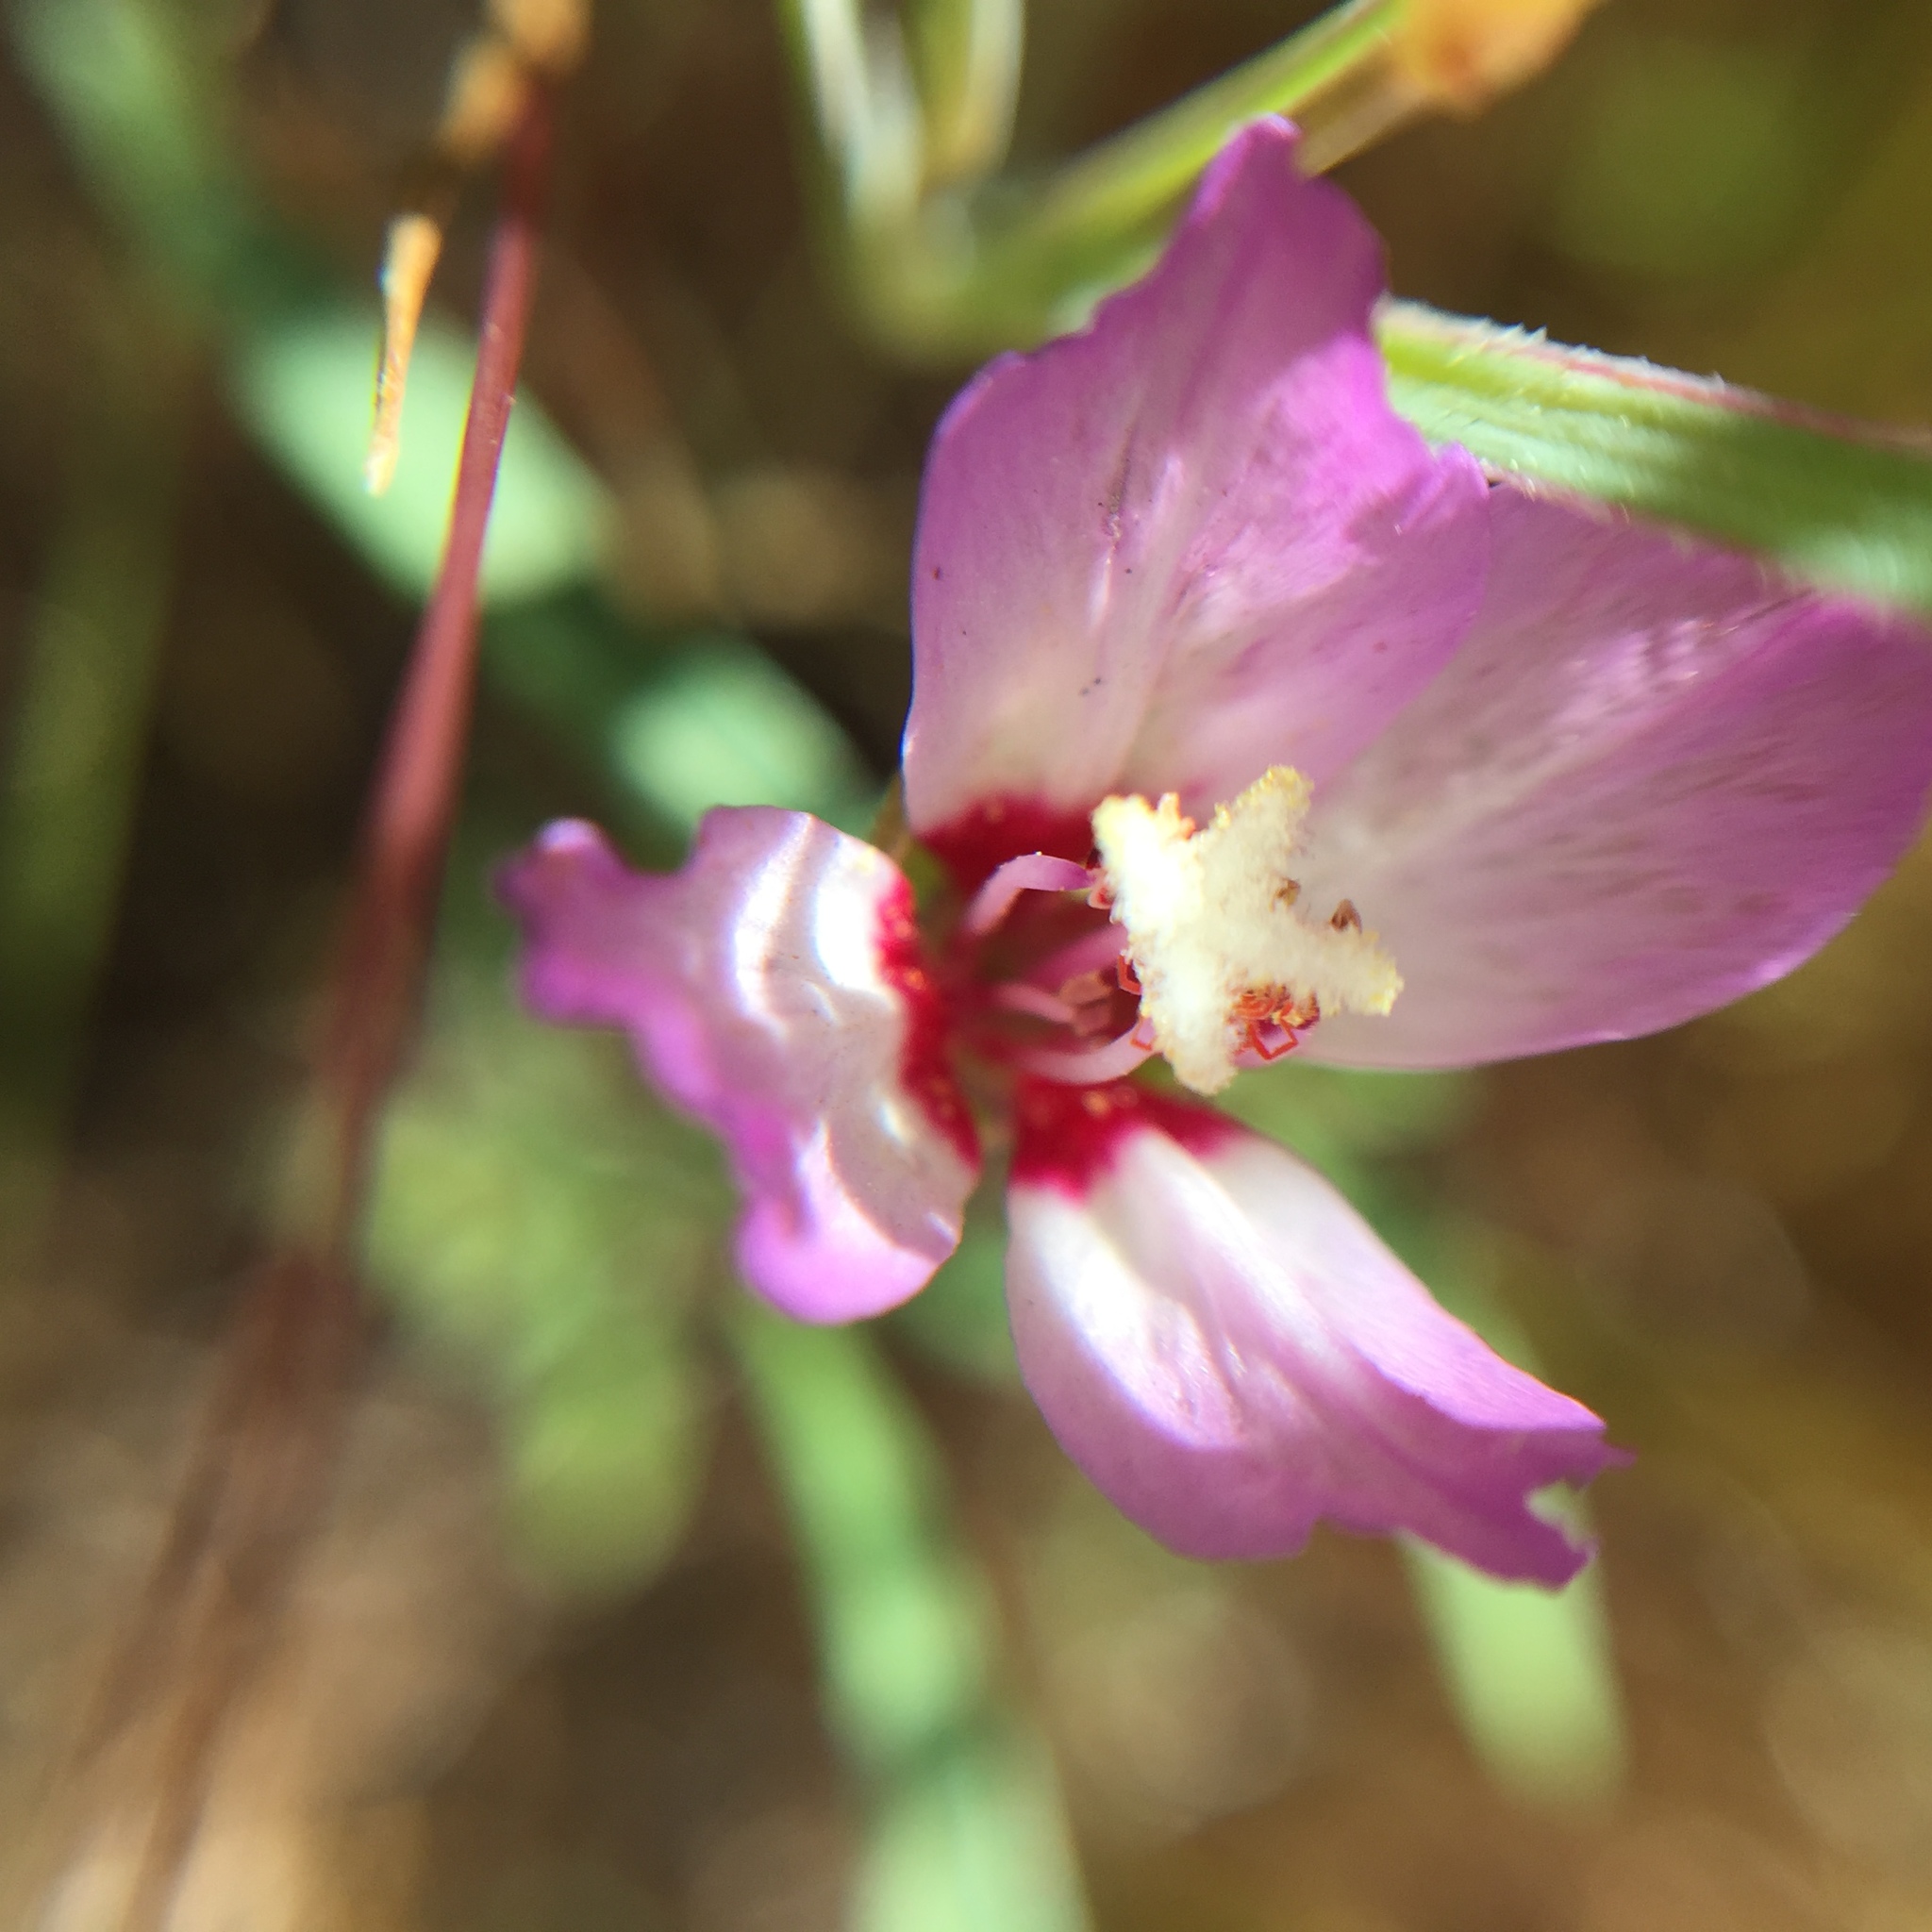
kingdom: Plantae
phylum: Tracheophyta
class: Magnoliopsida
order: Myrtales
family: Onagraceae
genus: Clarkia
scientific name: Clarkia franciscana
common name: Presidio clarkia
